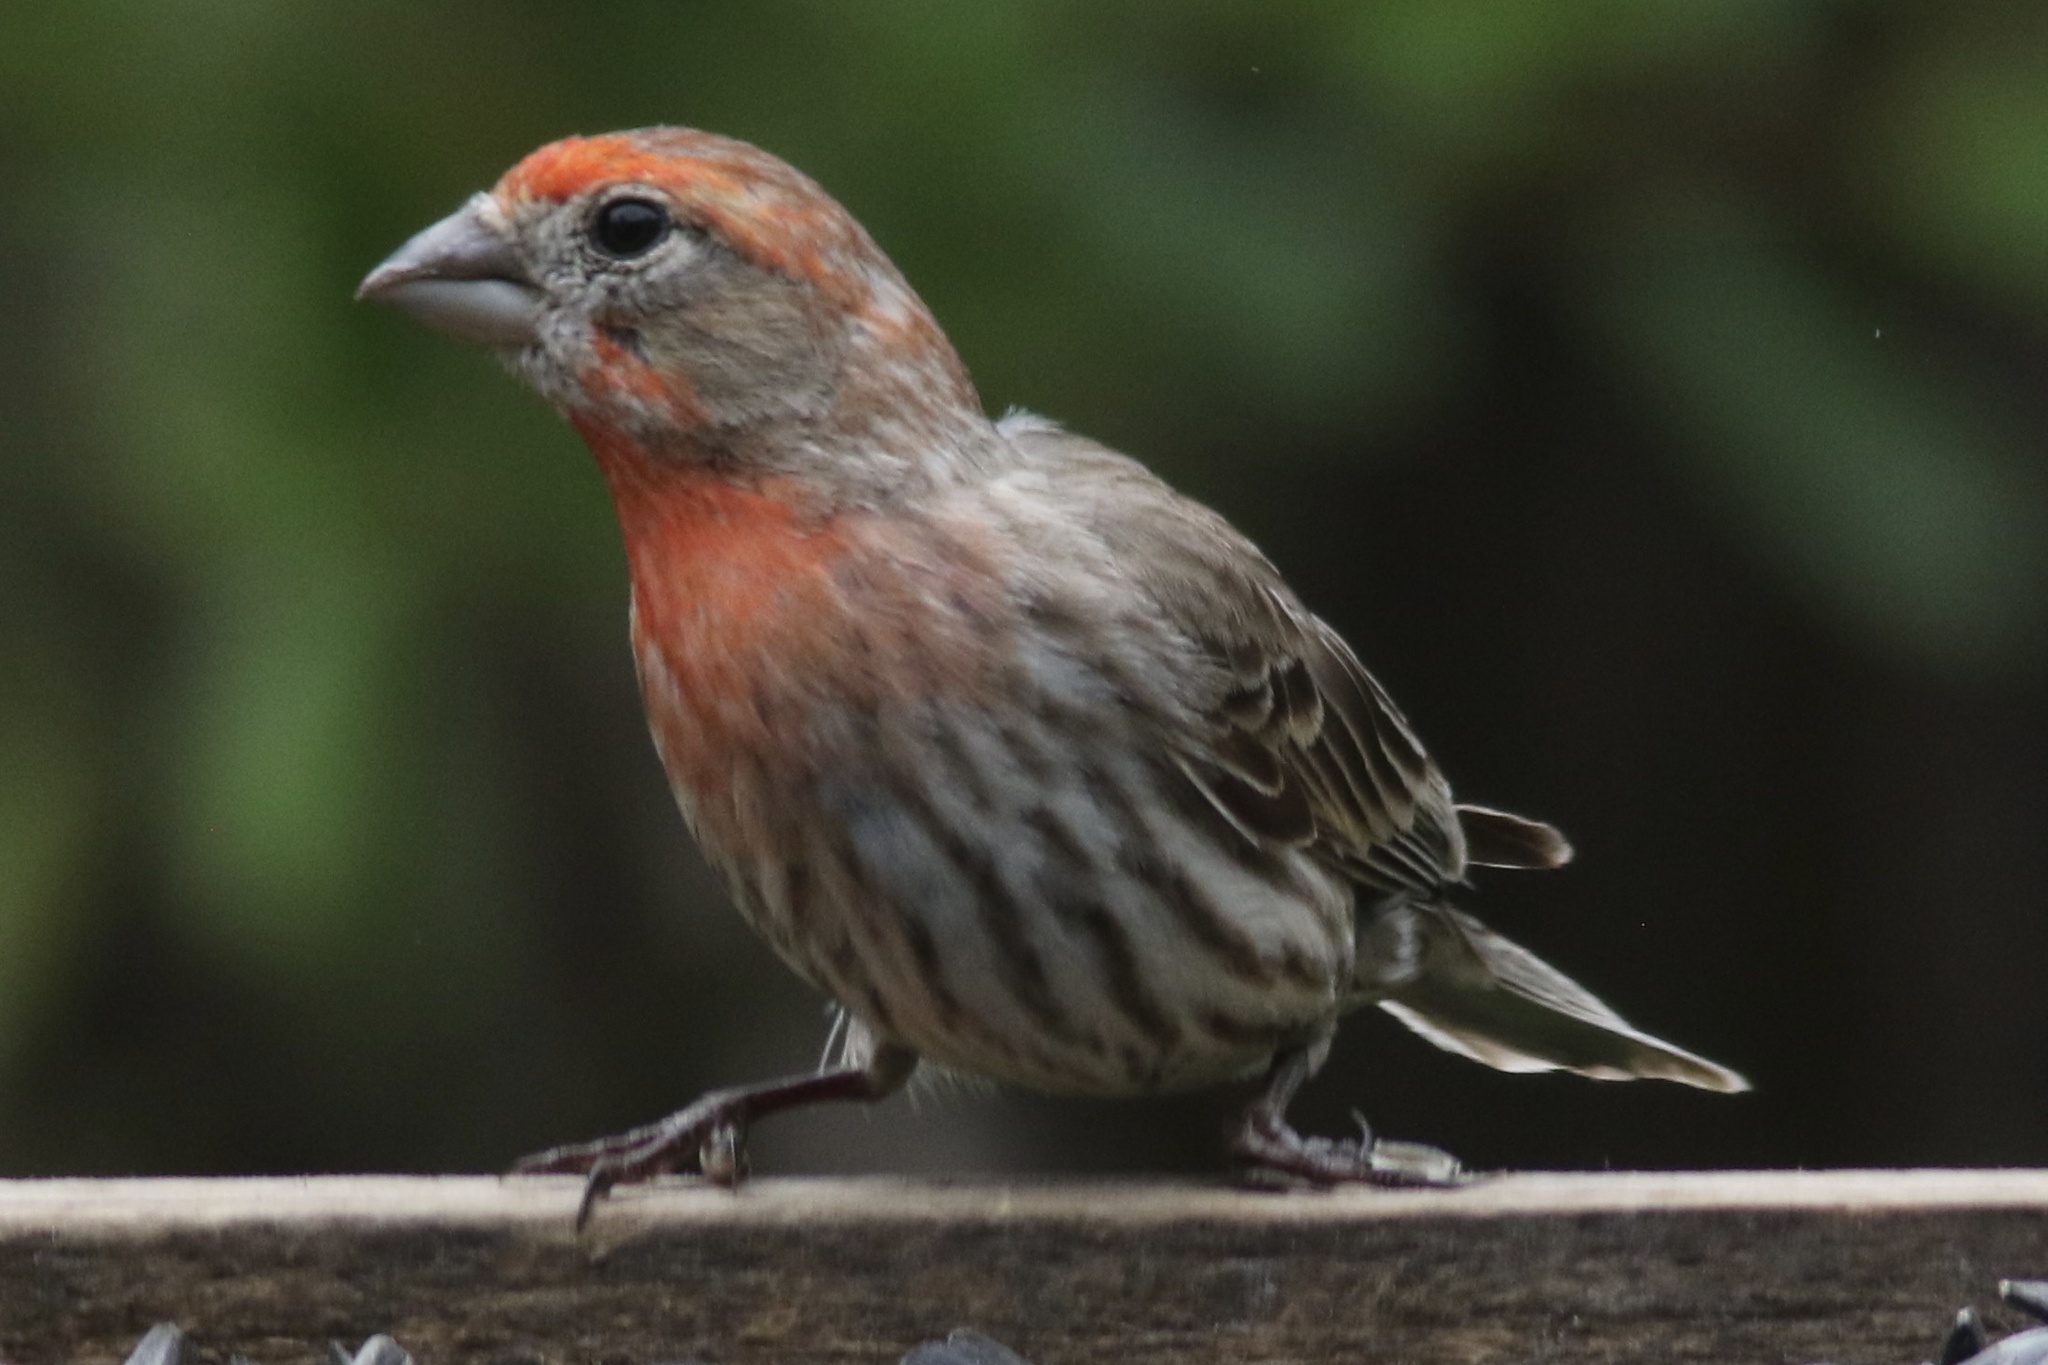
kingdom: Animalia
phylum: Chordata
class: Aves
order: Passeriformes
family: Fringillidae
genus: Haemorhous
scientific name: Haemorhous mexicanus
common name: House finch
